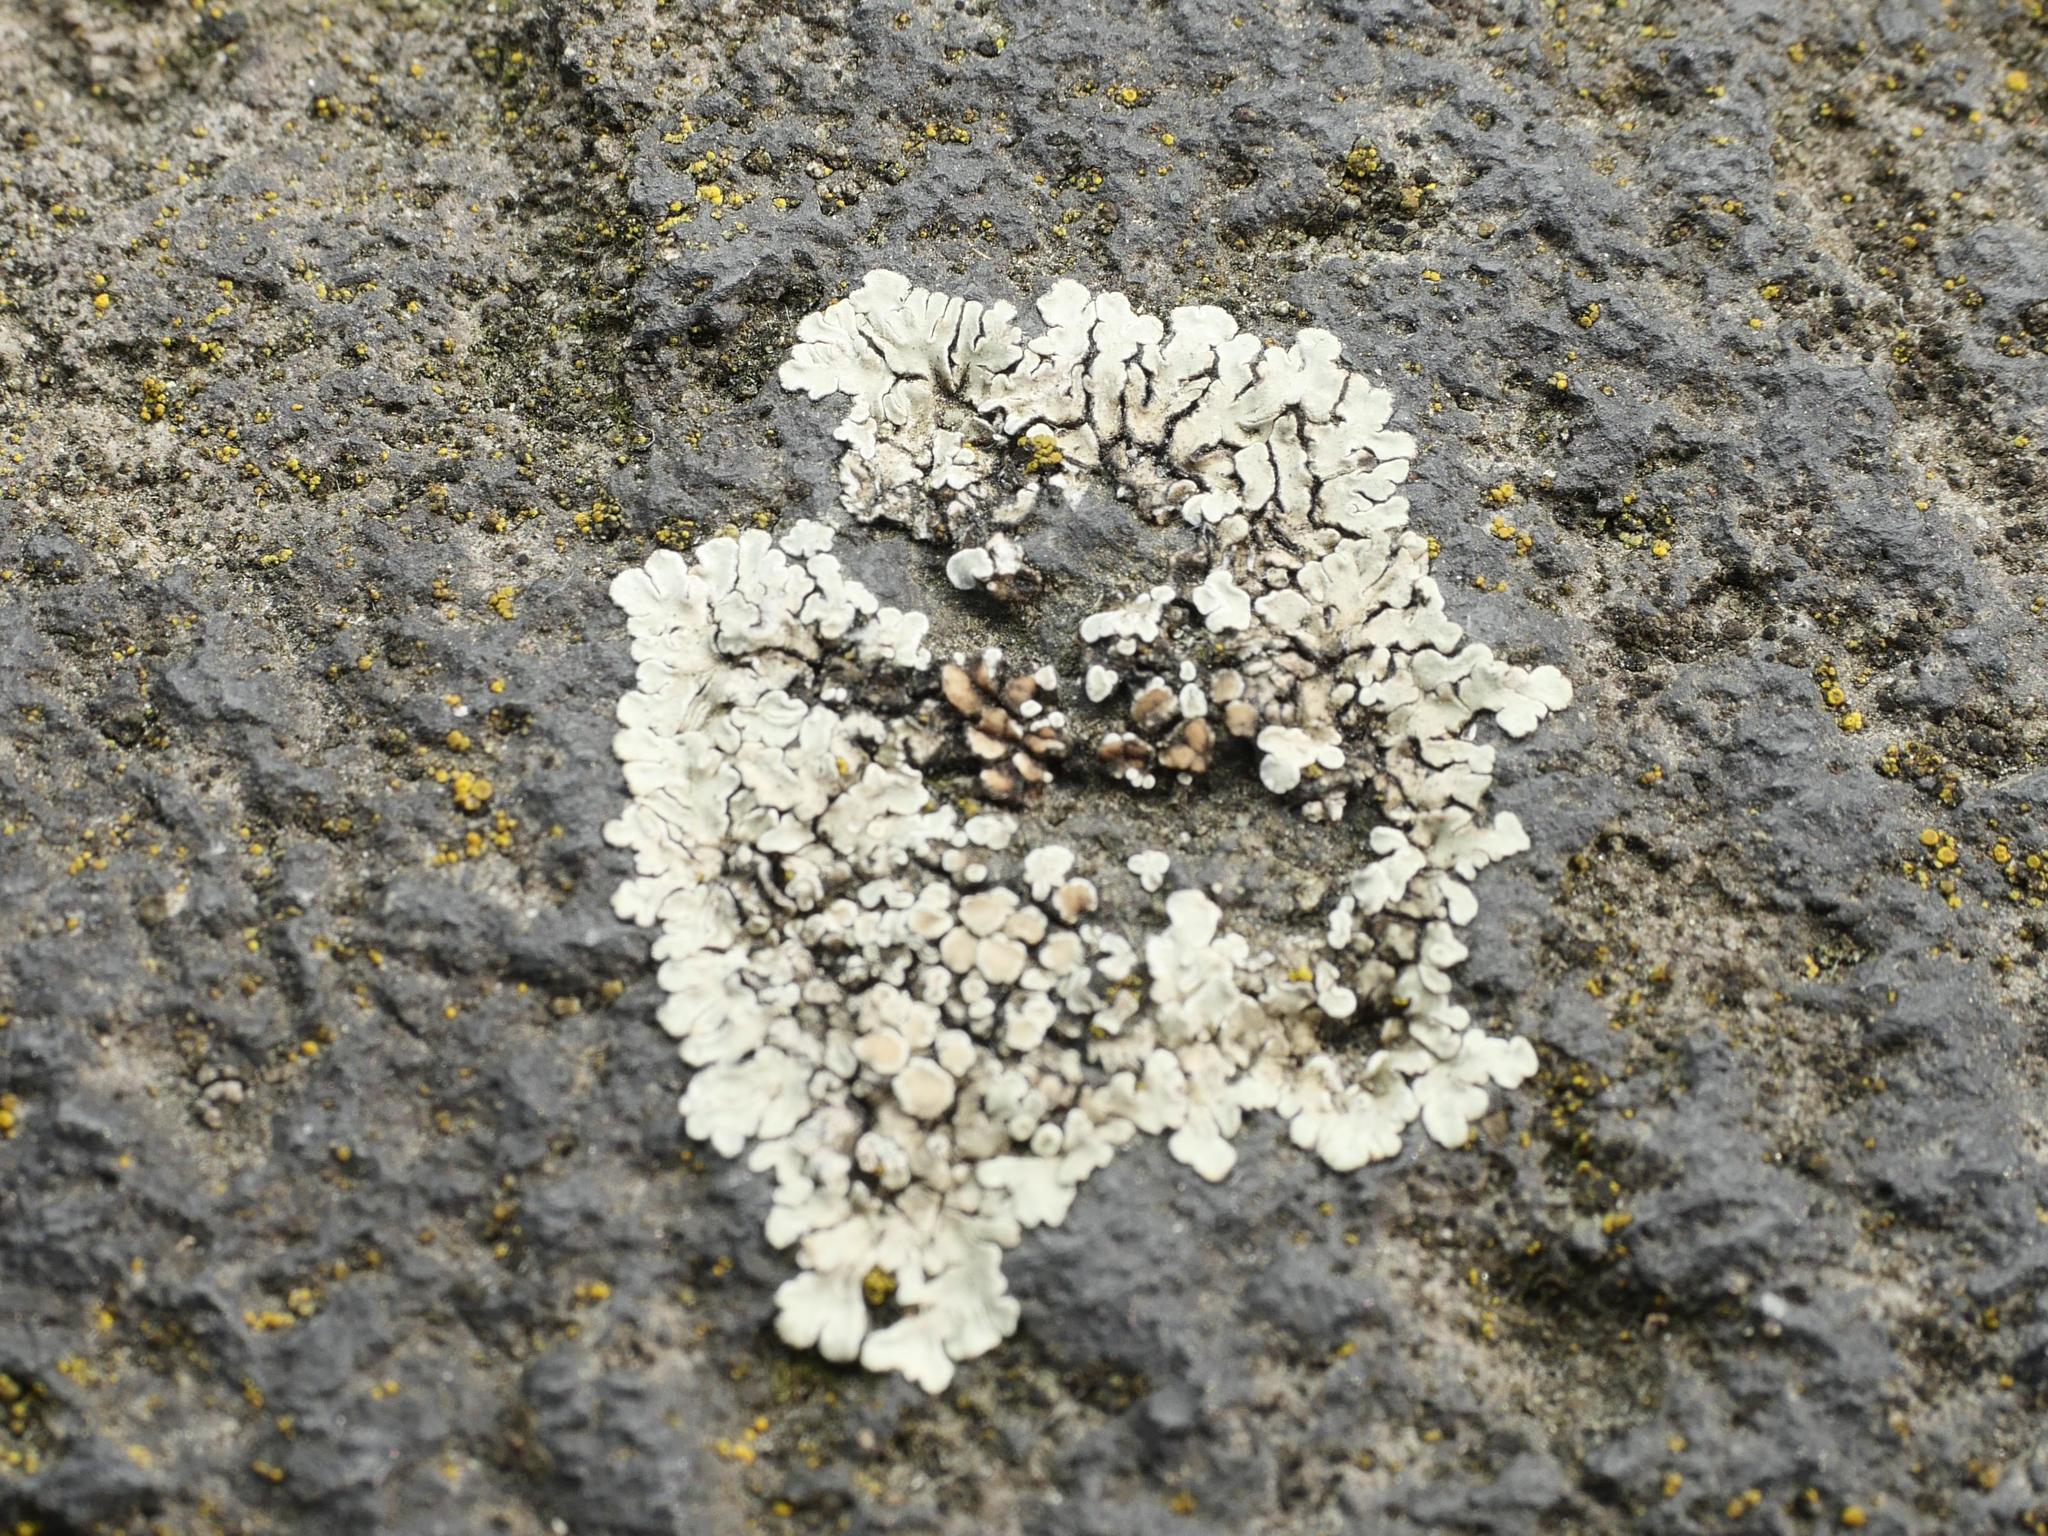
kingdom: Fungi
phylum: Ascomycota
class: Lecanoromycetes
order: Lecanorales
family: Lecanoraceae
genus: Protoparmeliopsis
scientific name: Protoparmeliopsis muralis
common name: Stonewall rim lichen
